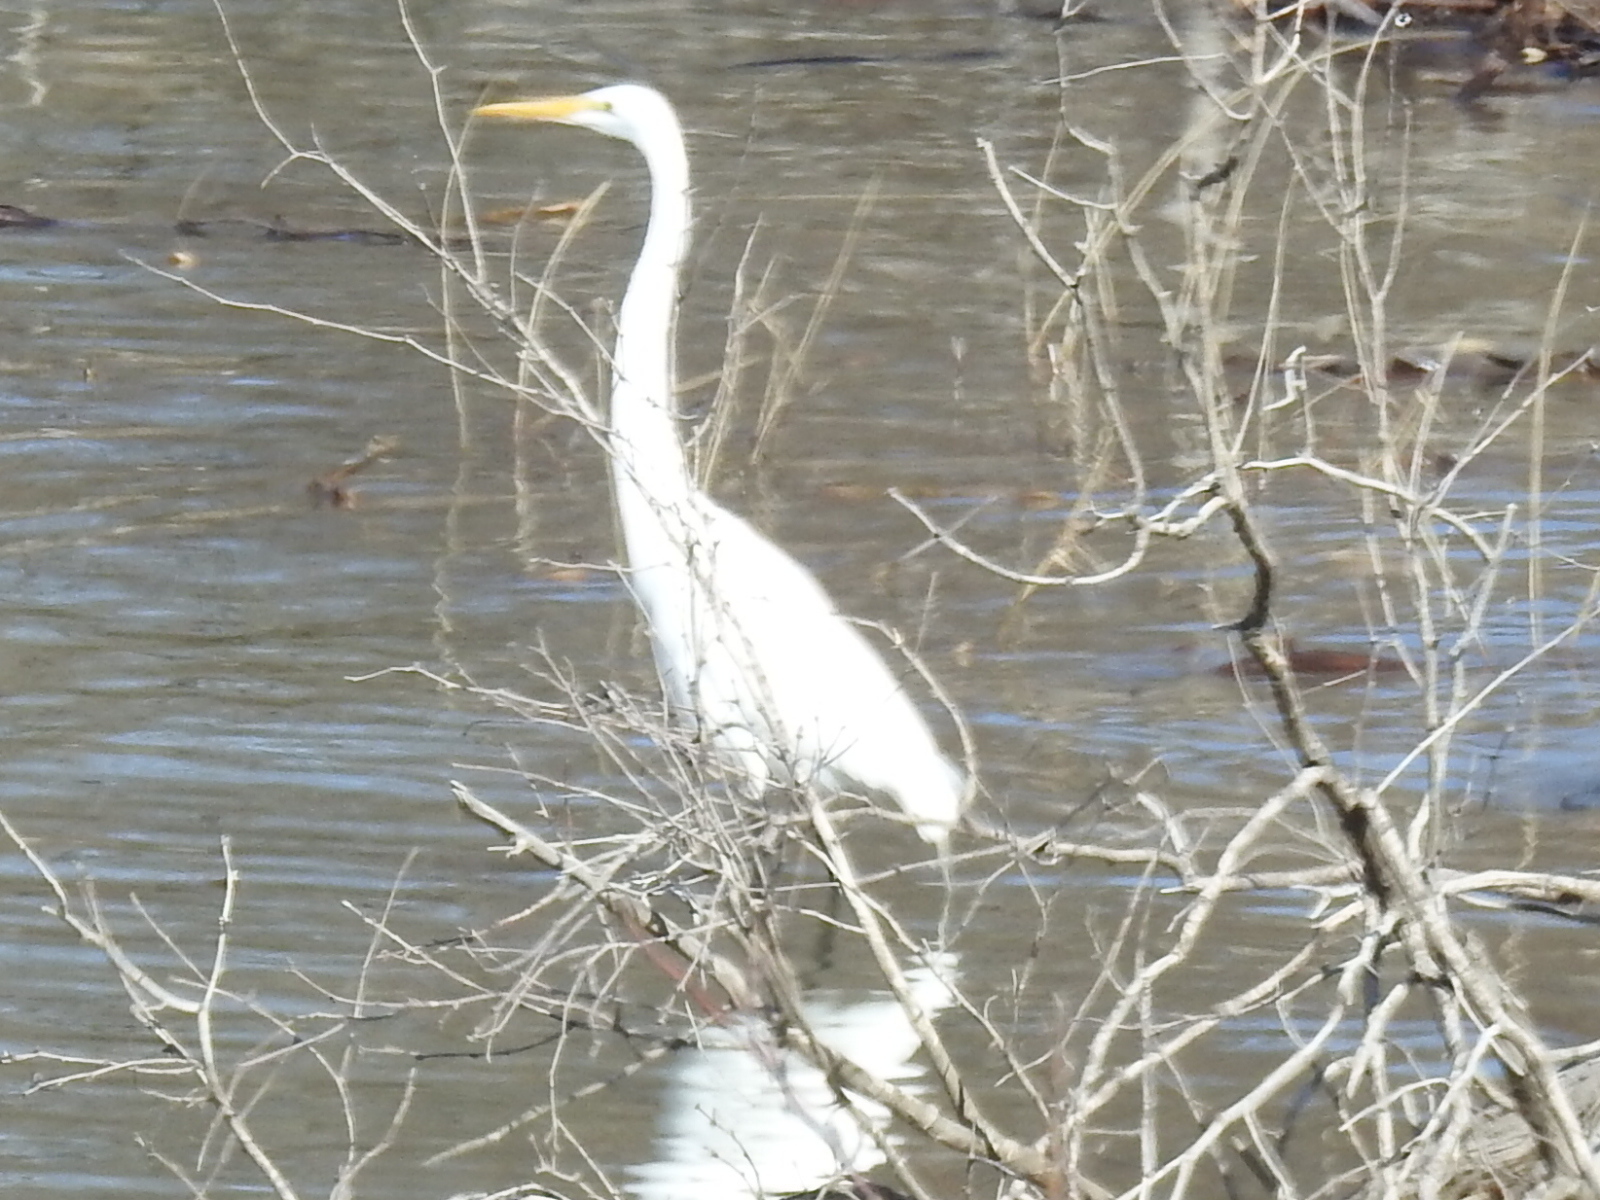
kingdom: Animalia
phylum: Chordata
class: Aves
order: Pelecaniformes
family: Ardeidae
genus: Ardea
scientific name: Ardea alba
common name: Great egret
